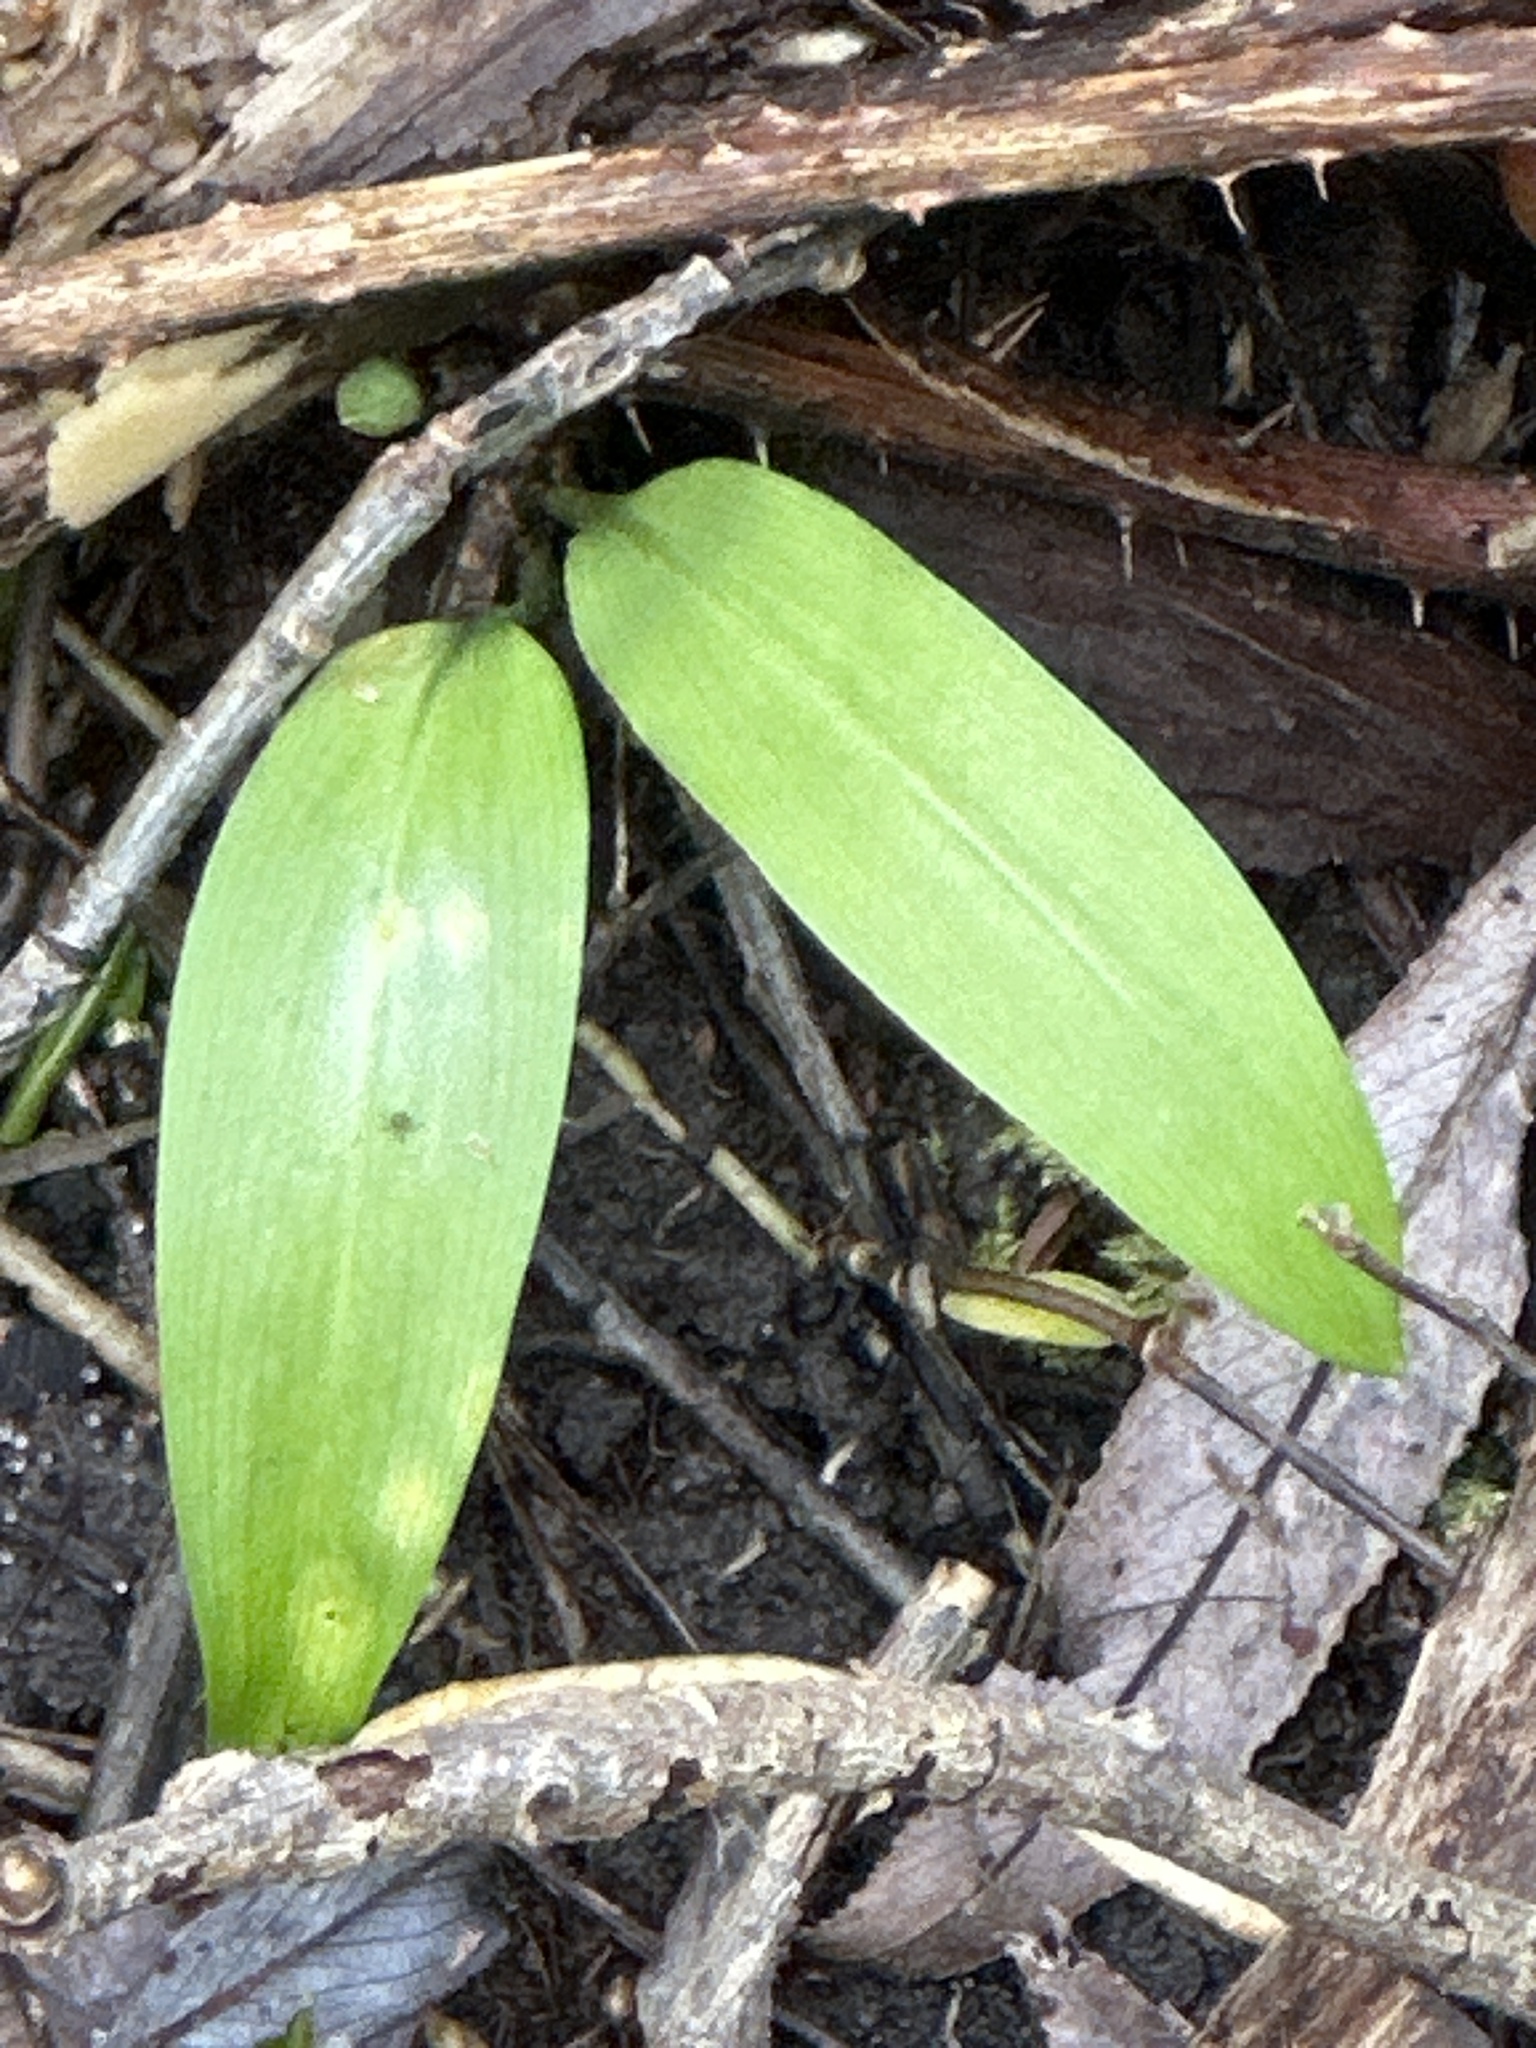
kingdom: Plantae
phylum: Tracheophyta
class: Liliopsida
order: Asparagales
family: Amaryllidaceae
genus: Allium
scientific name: Allium ursinum
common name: Ramsons
